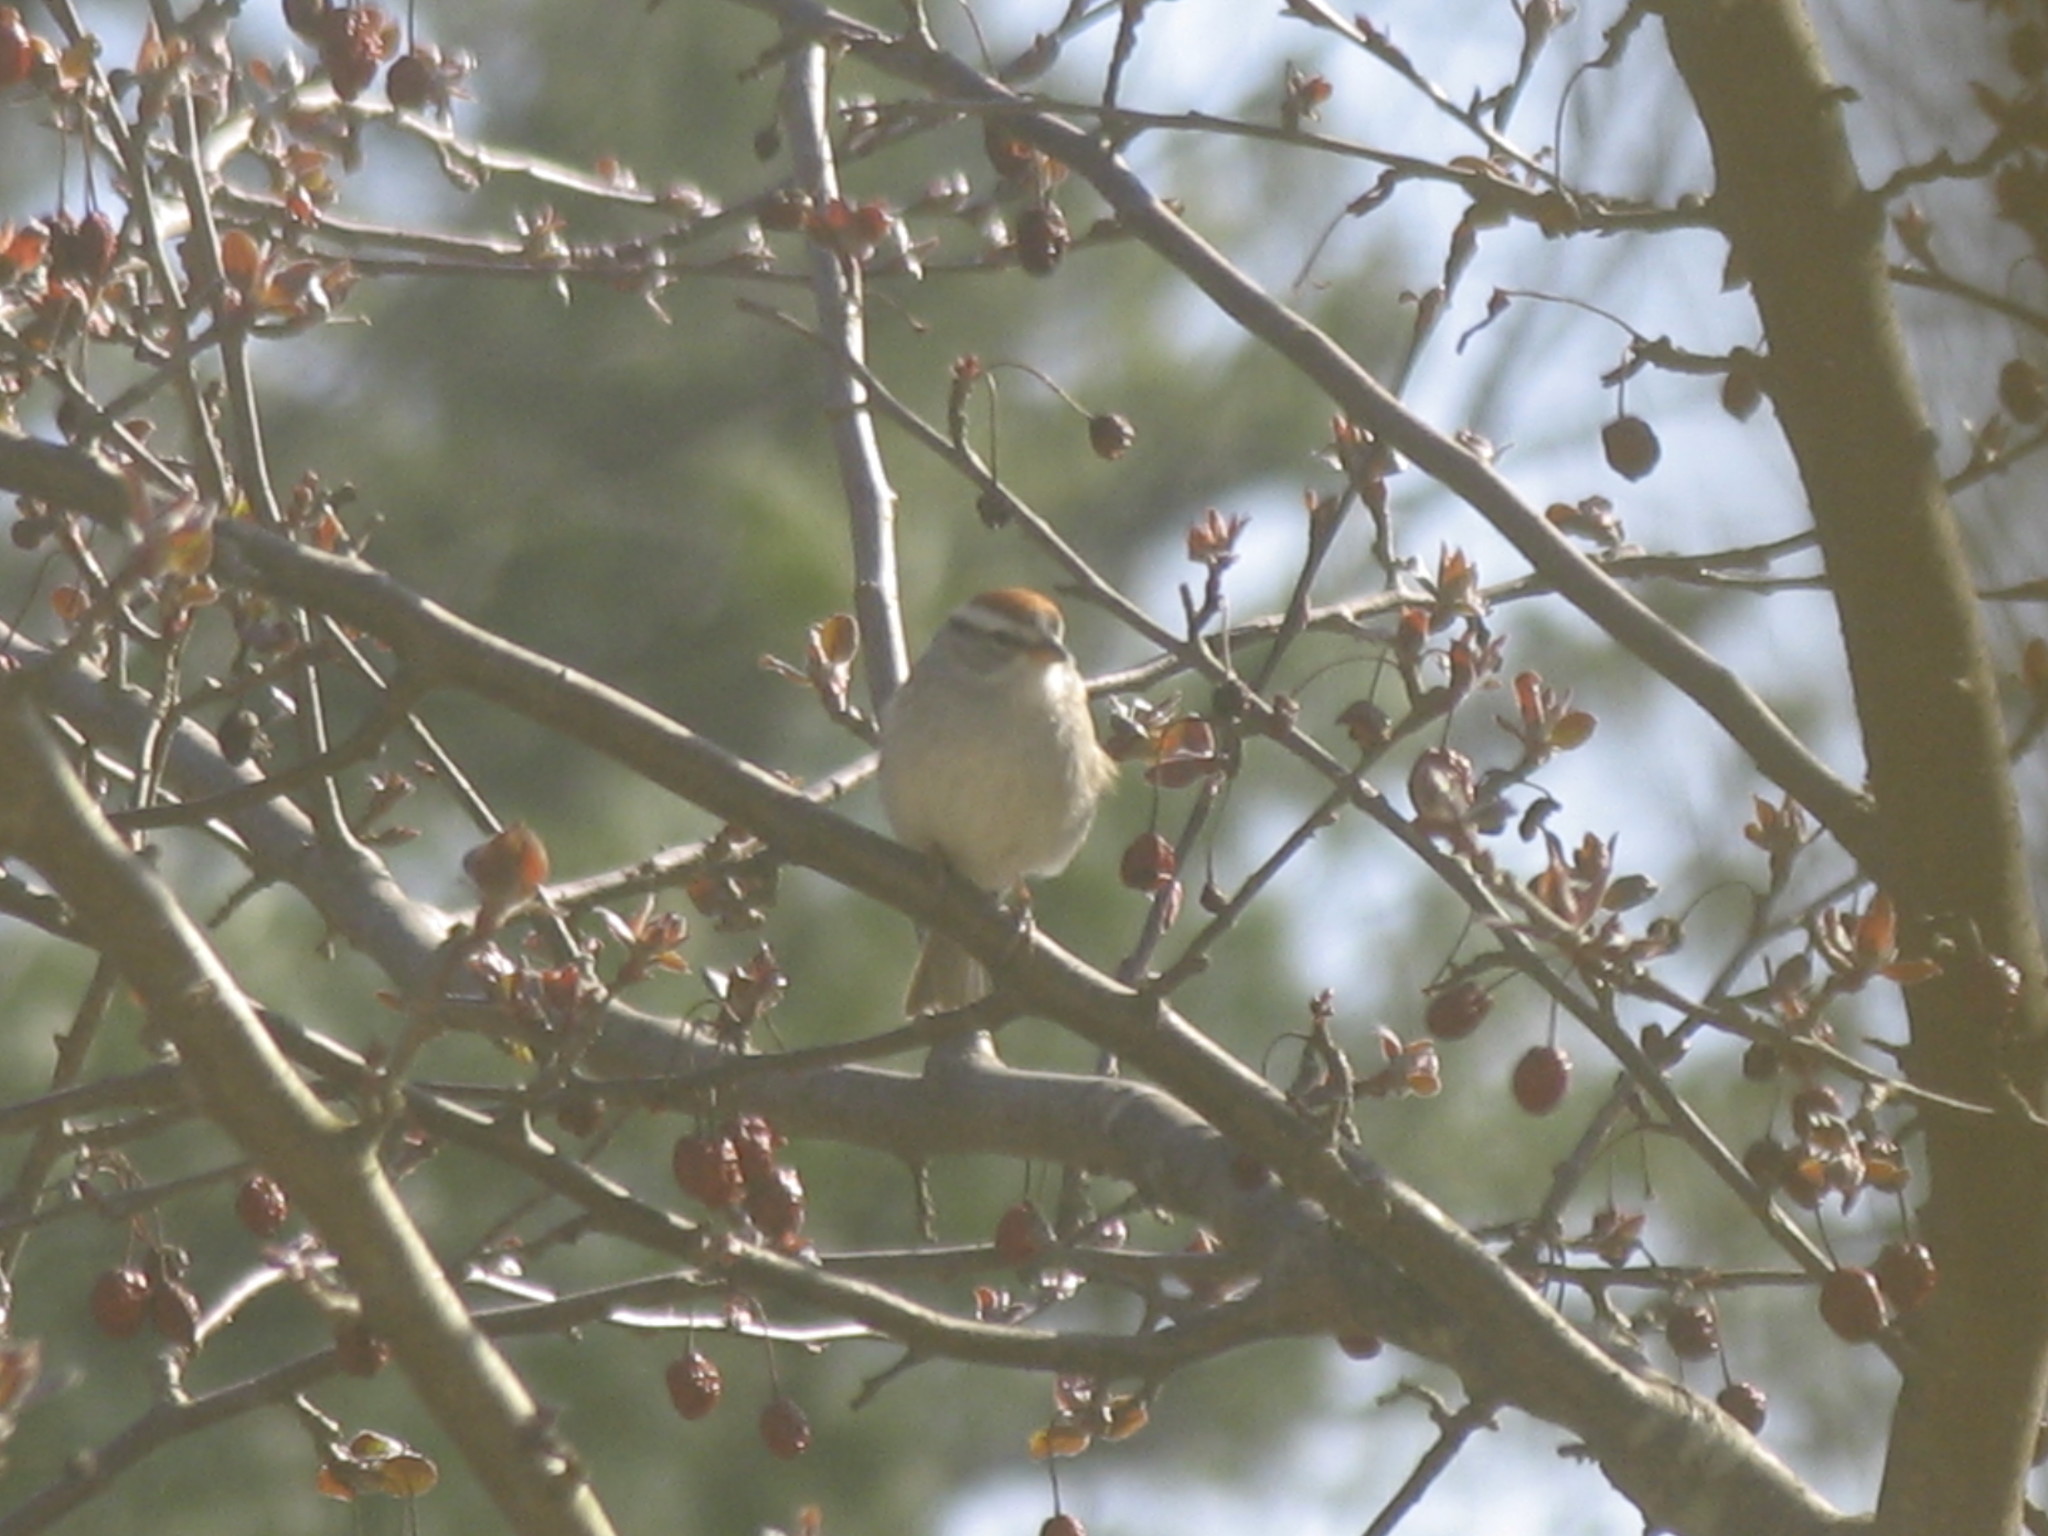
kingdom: Animalia
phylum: Chordata
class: Aves
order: Passeriformes
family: Passerellidae
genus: Spizella
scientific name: Spizella passerina
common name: Chipping sparrow
